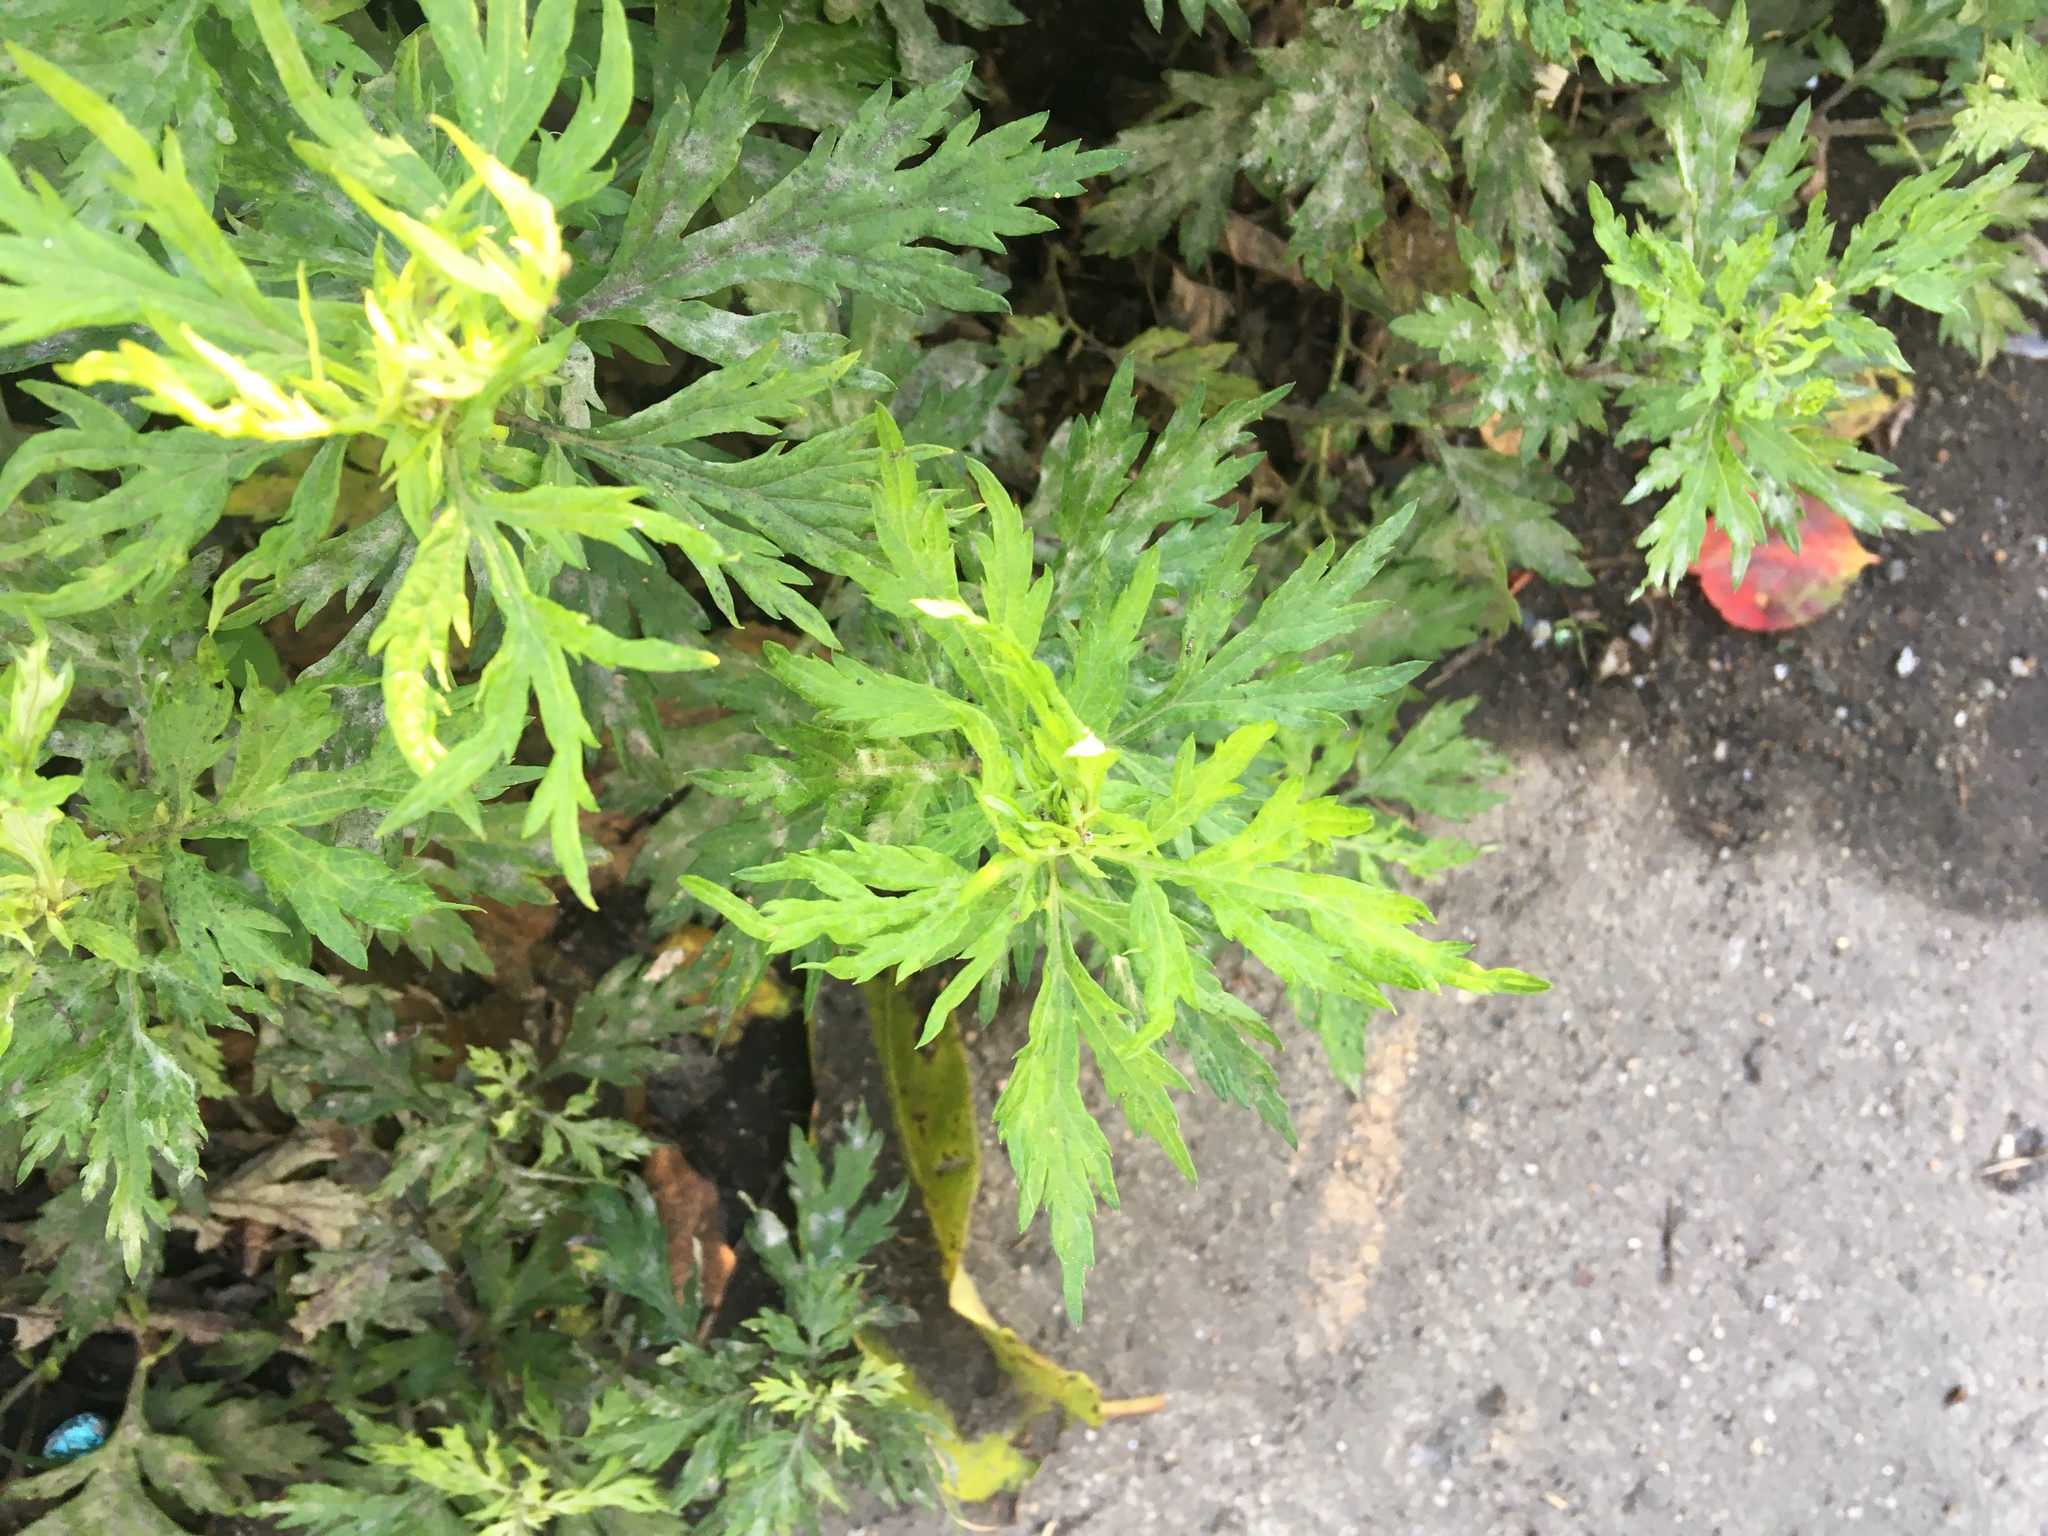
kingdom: Plantae
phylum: Tracheophyta
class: Magnoliopsida
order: Asterales
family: Asteraceae
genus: Artemisia
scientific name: Artemisia vulgaris
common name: Mugwort
